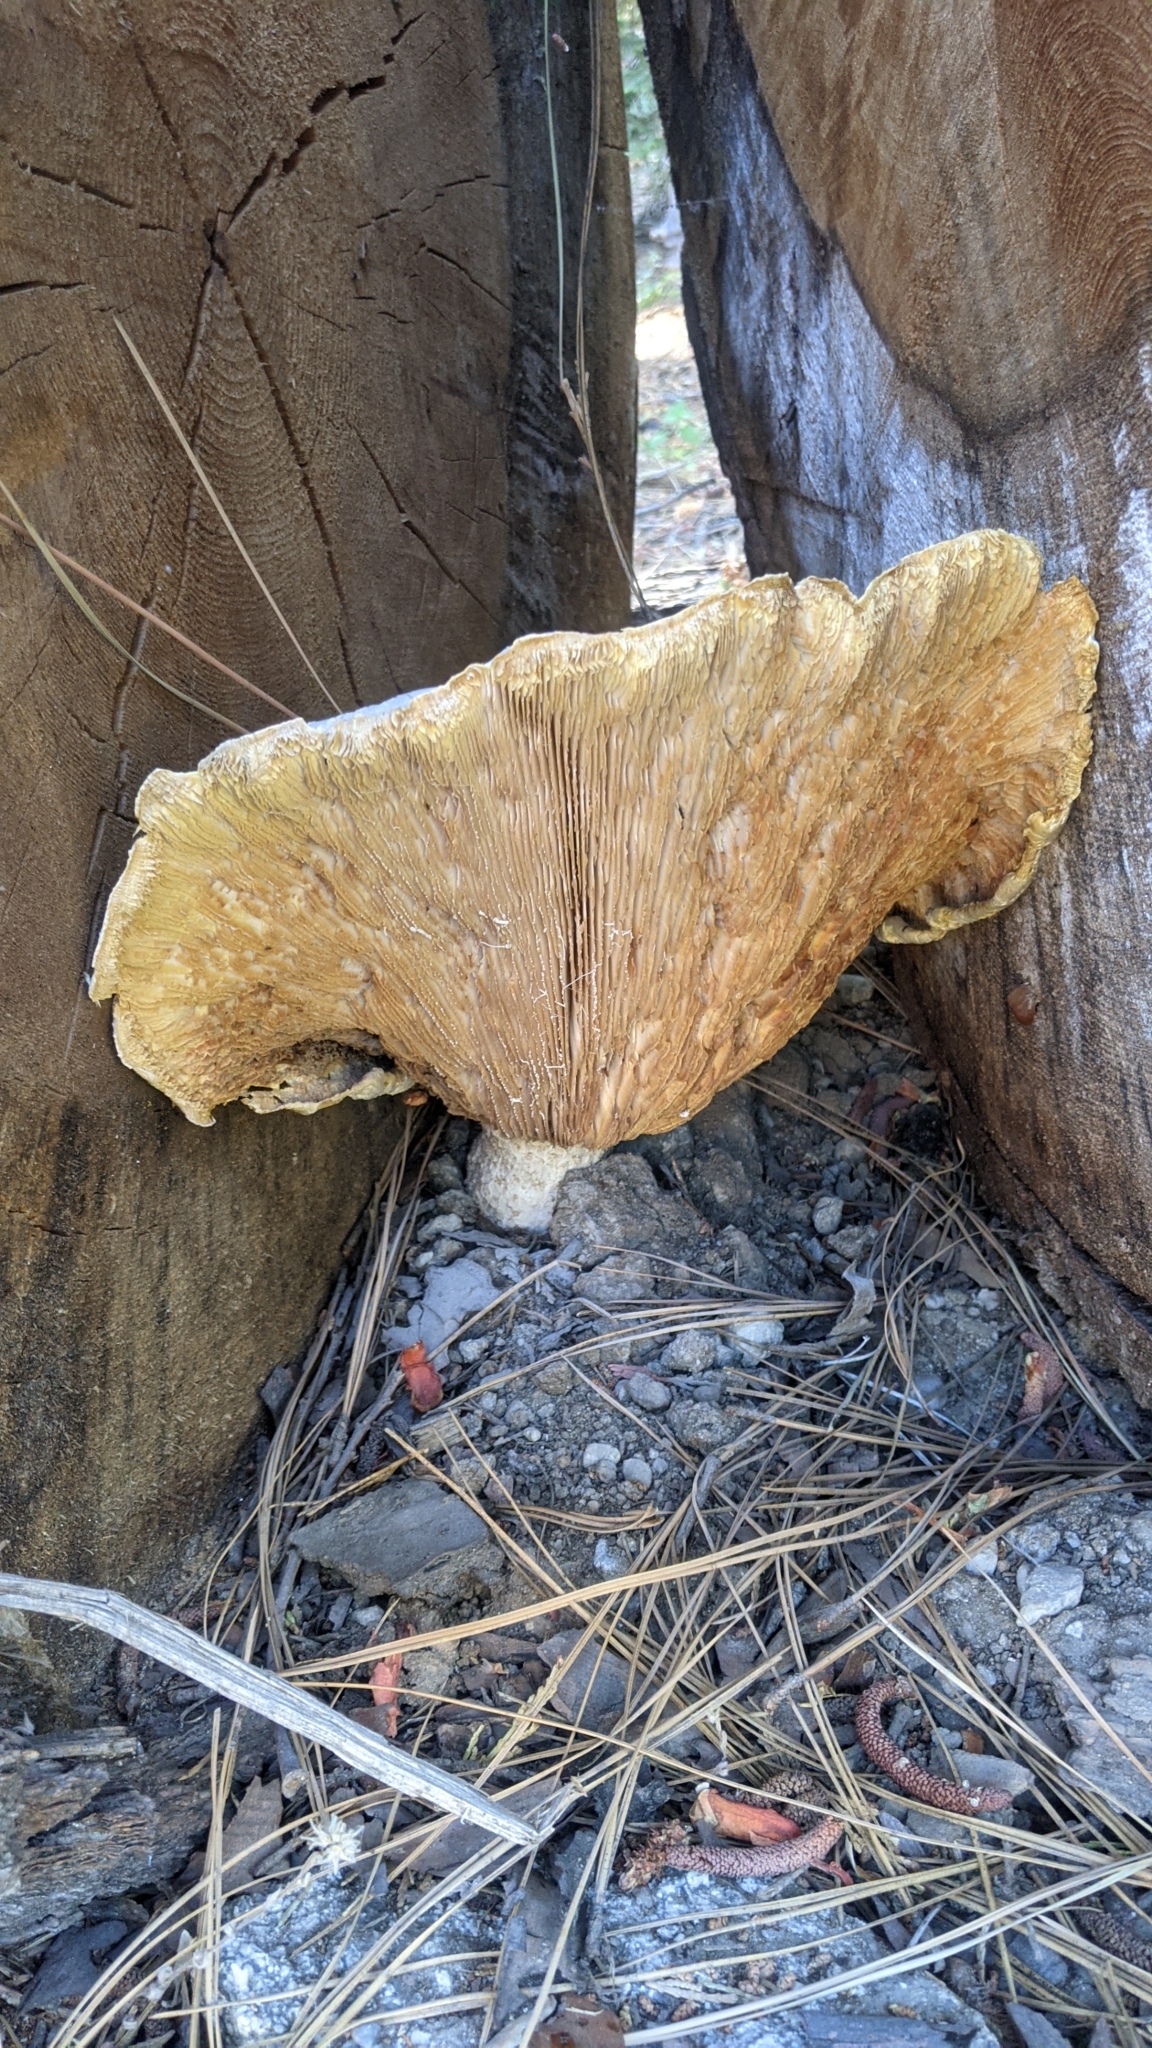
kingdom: Fungi
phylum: Basidiomycota
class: Agaricomycetes
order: Gloeophyllales
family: Gloeophyllaceae
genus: Neolentinus
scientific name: Neolentinus ponderosus
